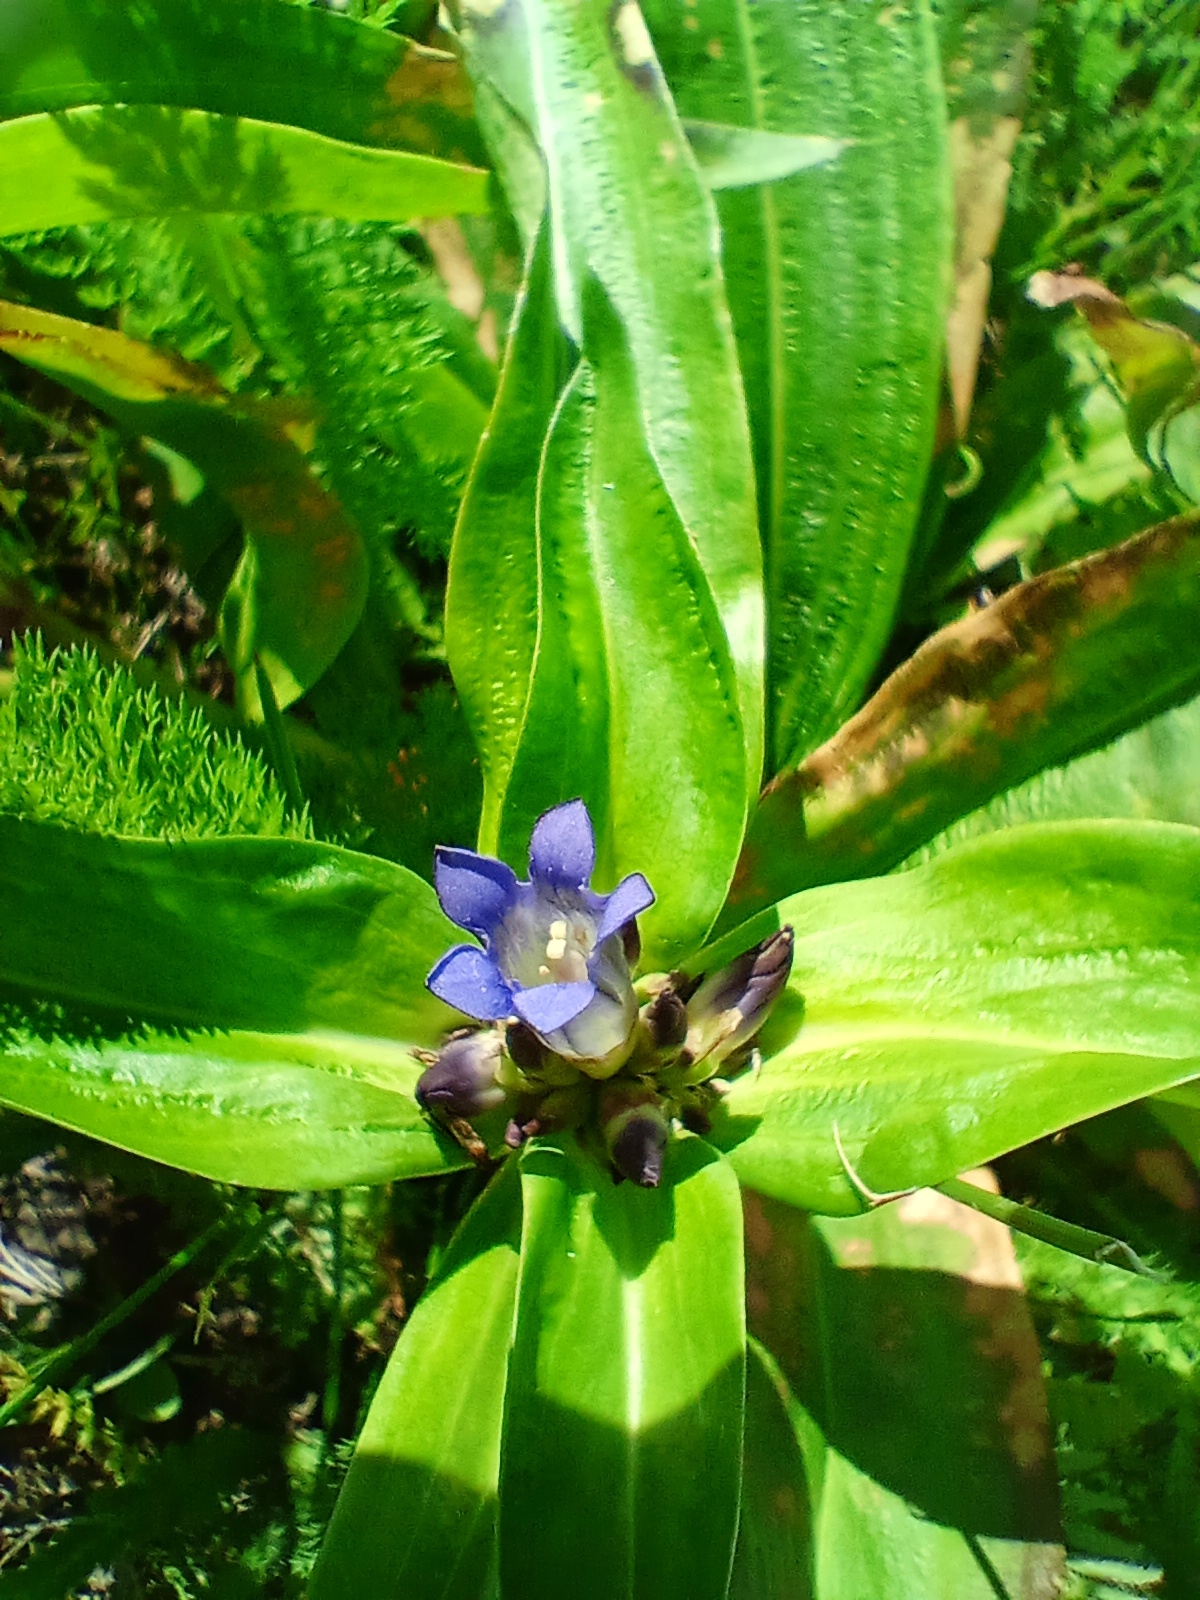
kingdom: Plantae
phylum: Tracheophyta
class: Magnoliopsida
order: Gentianales
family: Gentianaceae
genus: Gentiana
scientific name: Gentiana macrophylla
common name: Large-leaf gentian
